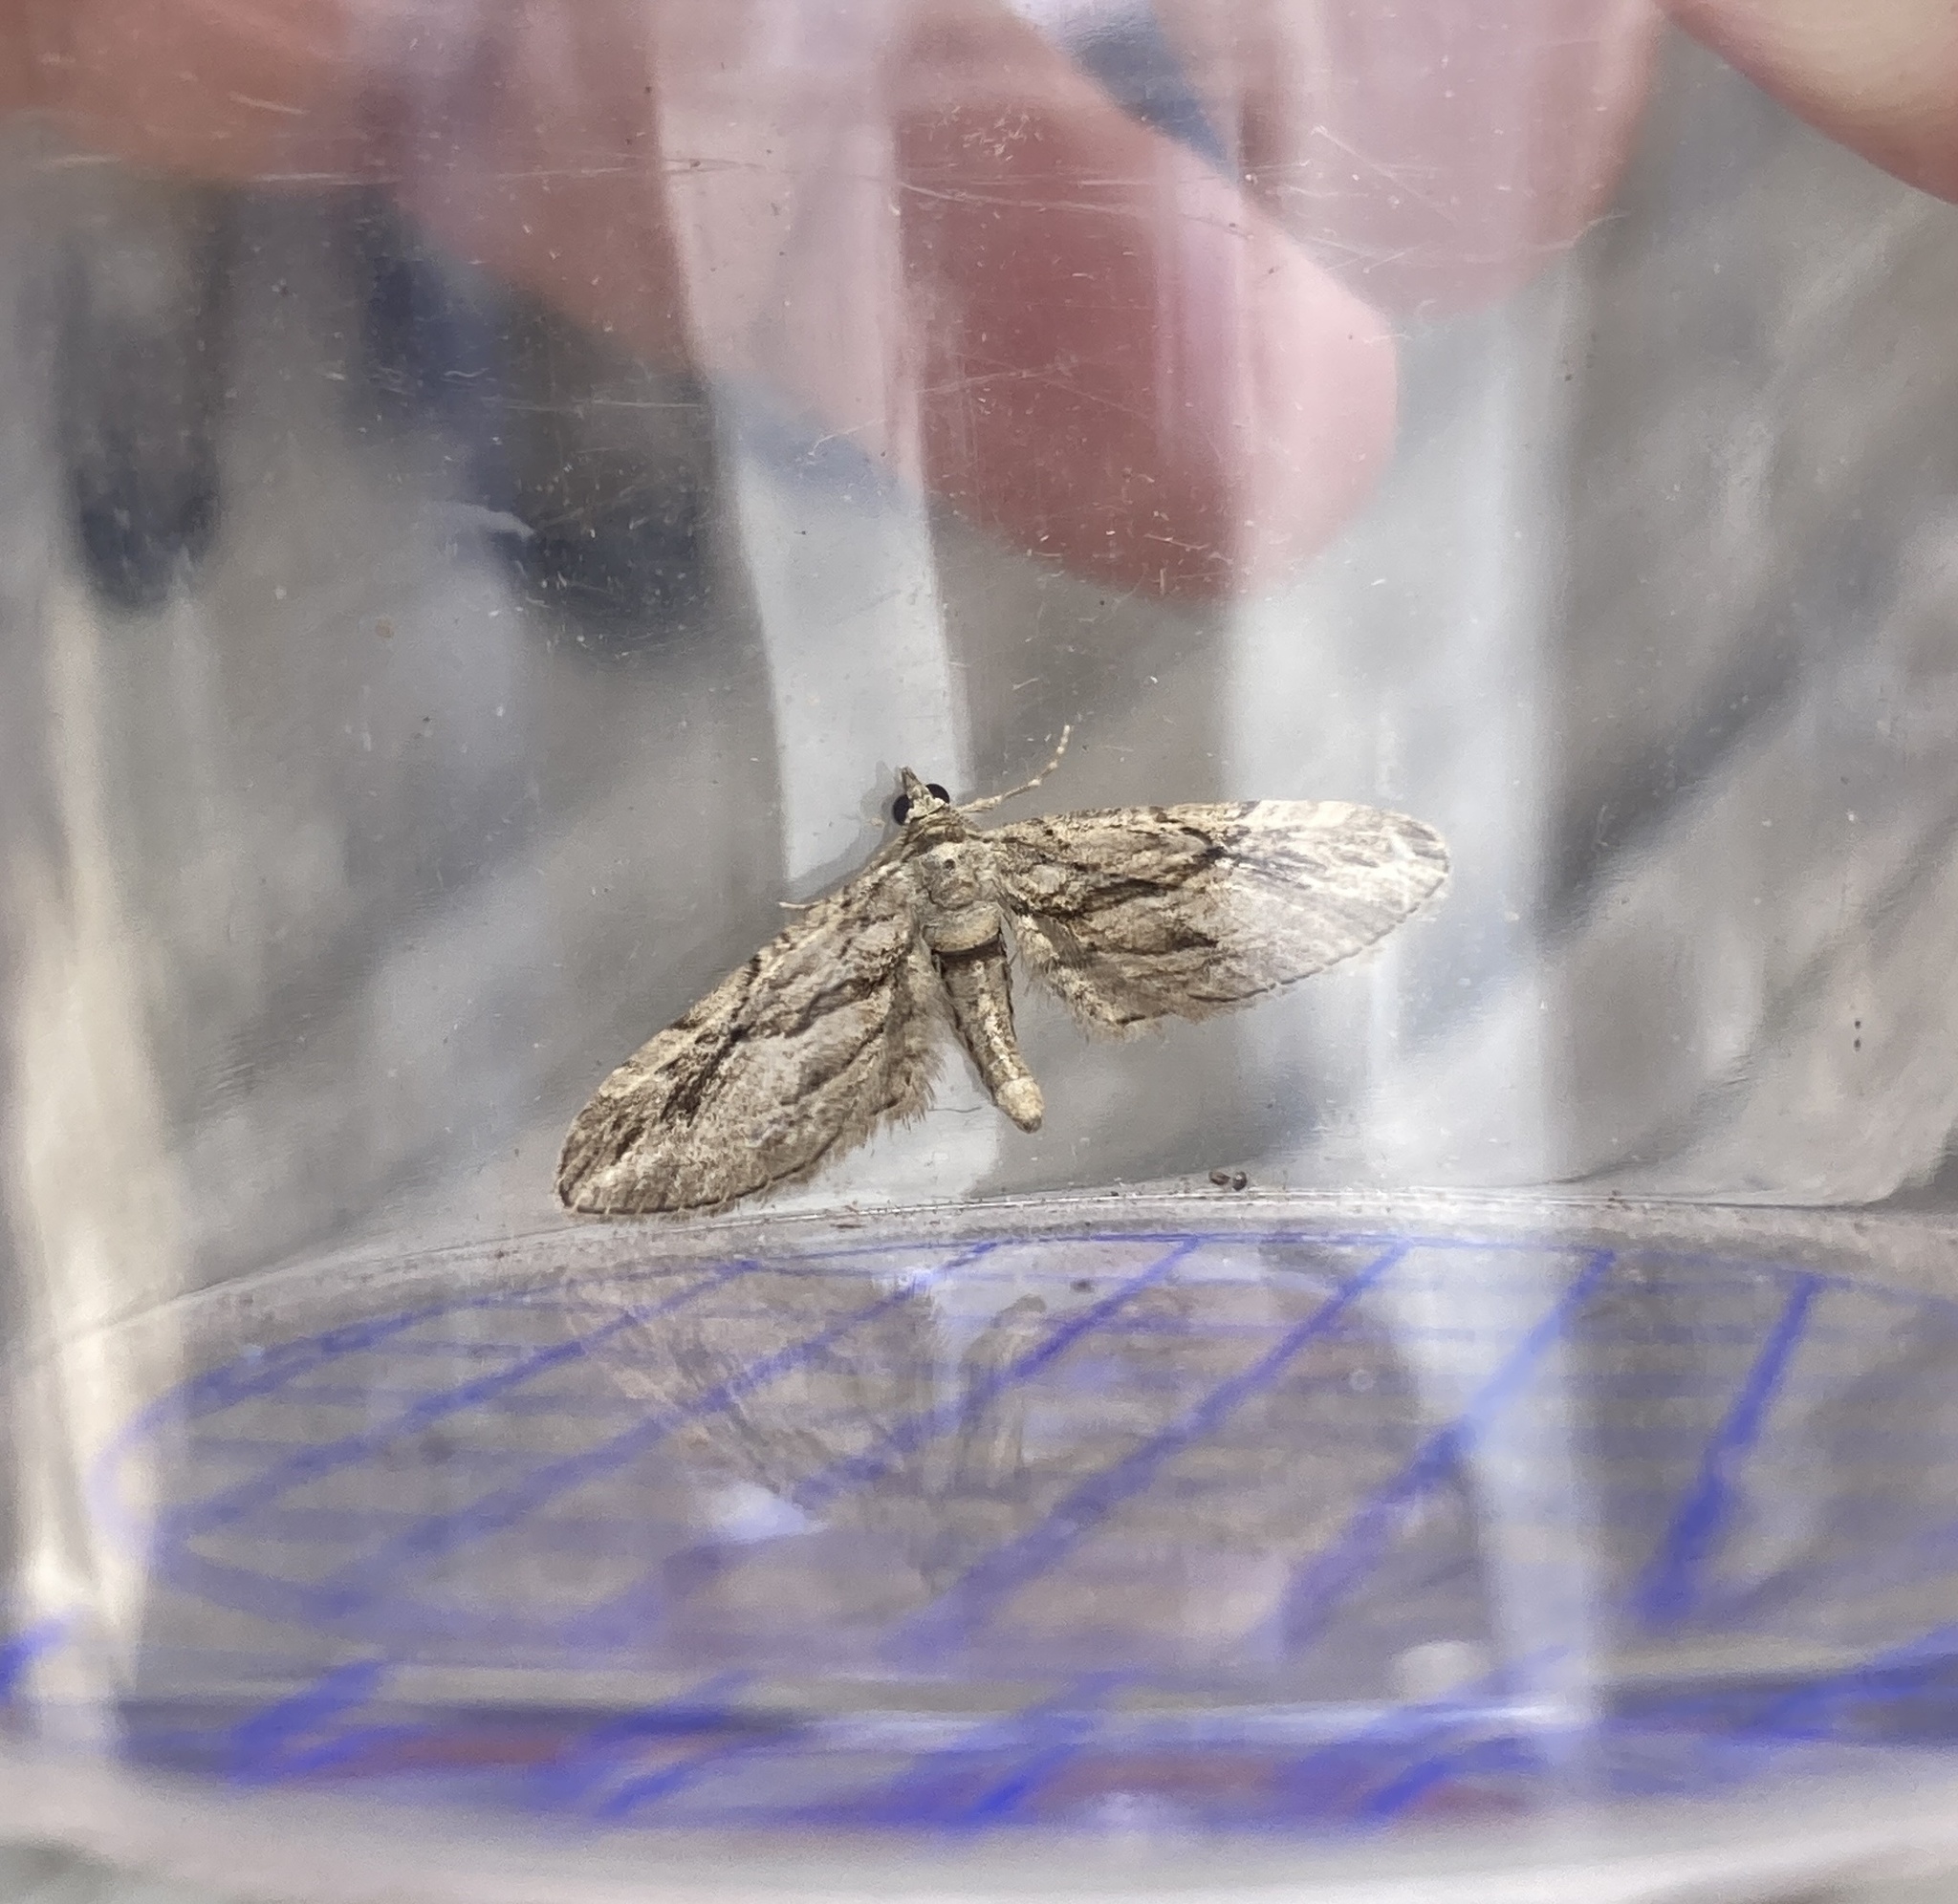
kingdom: Animalia
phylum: Arthropoda
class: Insecta
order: Lepidoptera
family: Geometridae
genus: Eupithecia
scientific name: Eupithecia phoeniceata
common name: Cypress pug
